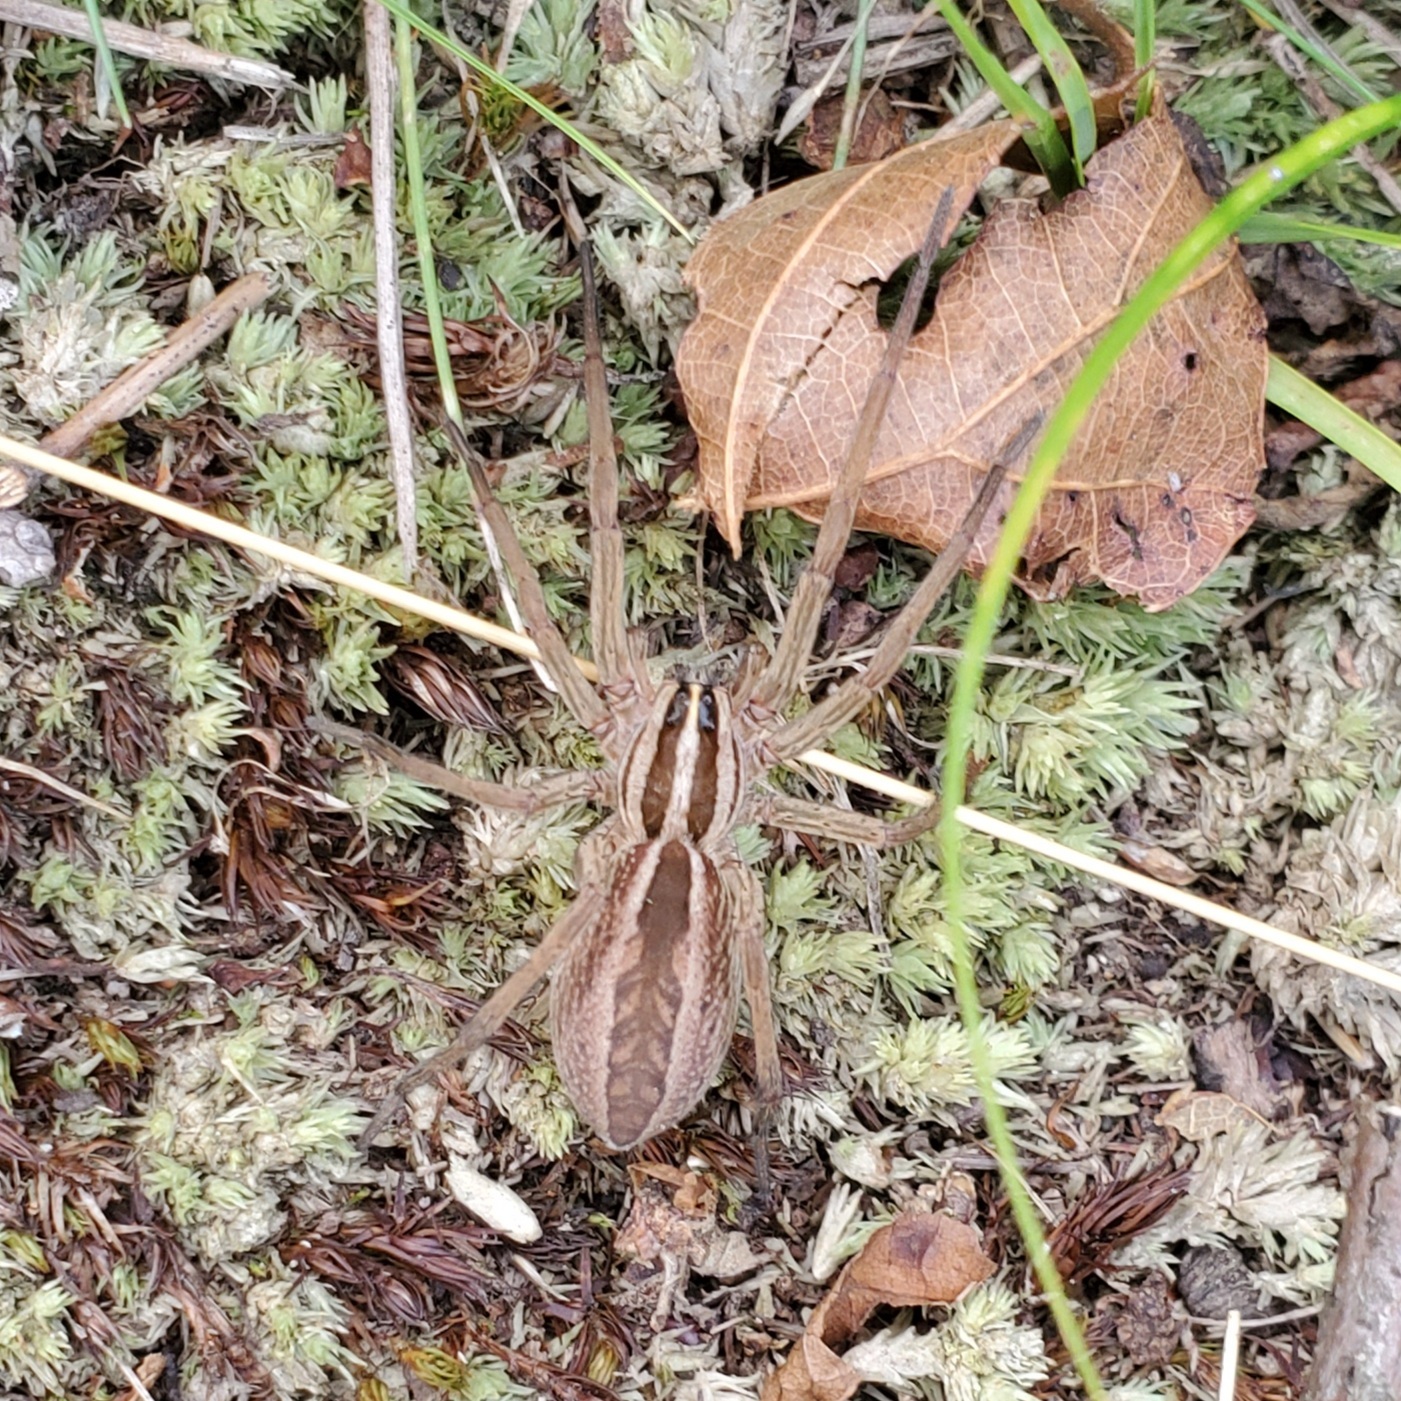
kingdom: Animalia
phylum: Arthropoda
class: Arachnida
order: Araneae
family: Lycosidae
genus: Rabidosa
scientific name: Rabidosa rabida
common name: Rabid wolf spider
